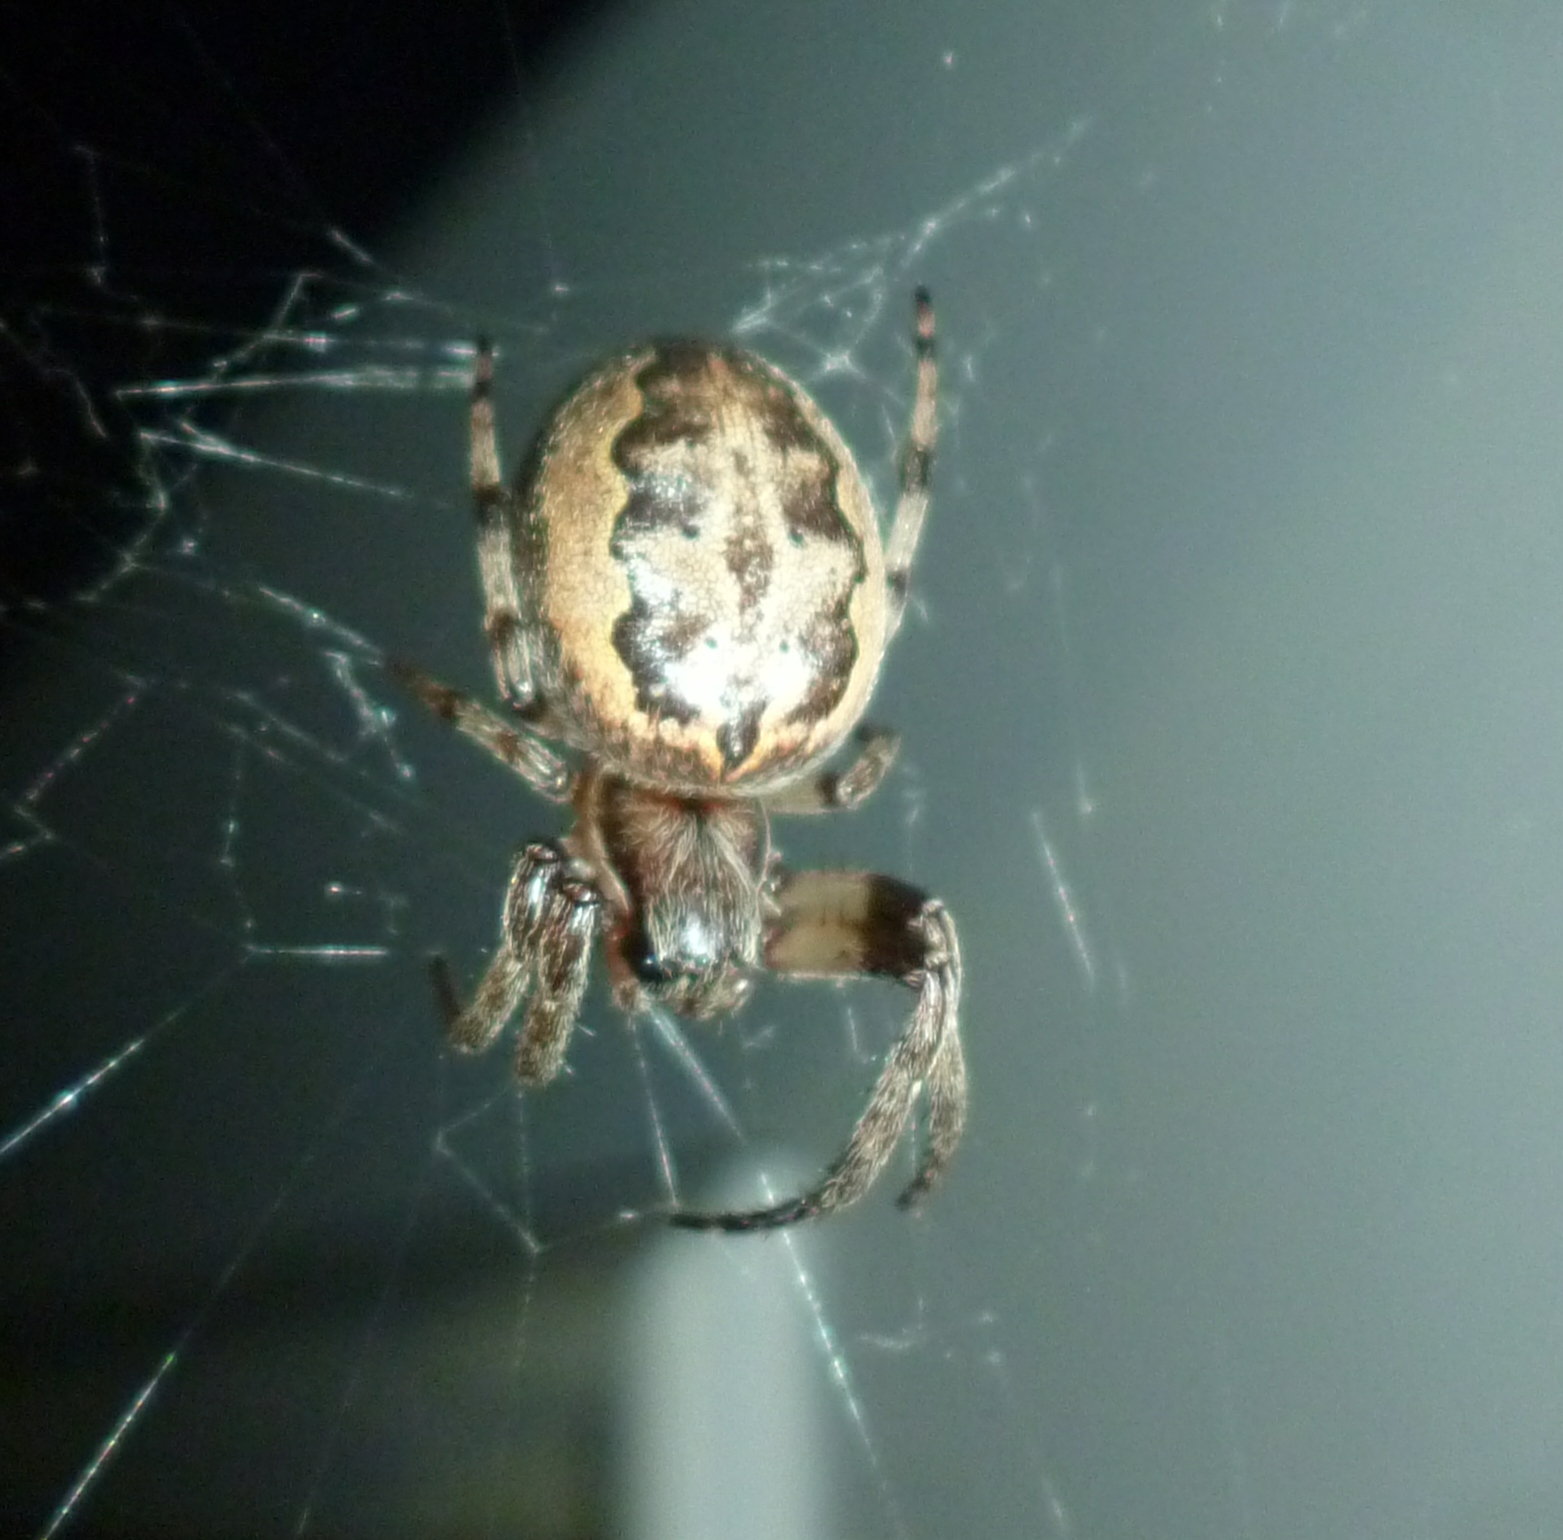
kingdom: Animalia
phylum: Arthropoda
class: Arachnida
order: Araneae
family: Araneidae
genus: Larinioides
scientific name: Larinioides cornutus
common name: Furrow orbweaver
